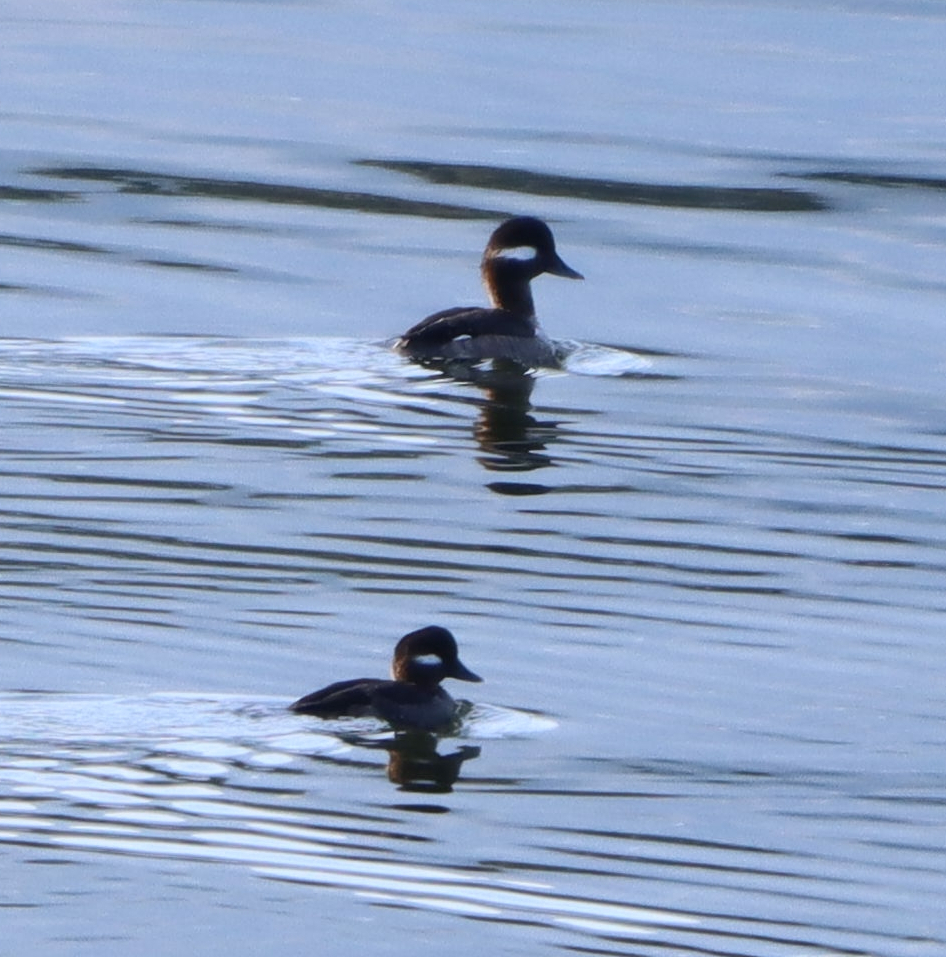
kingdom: Animalia
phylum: Chordata
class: Aves
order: Anseriformes
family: Anatidae
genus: Bucephala
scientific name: Bucephala albeola
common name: Bufflehead
